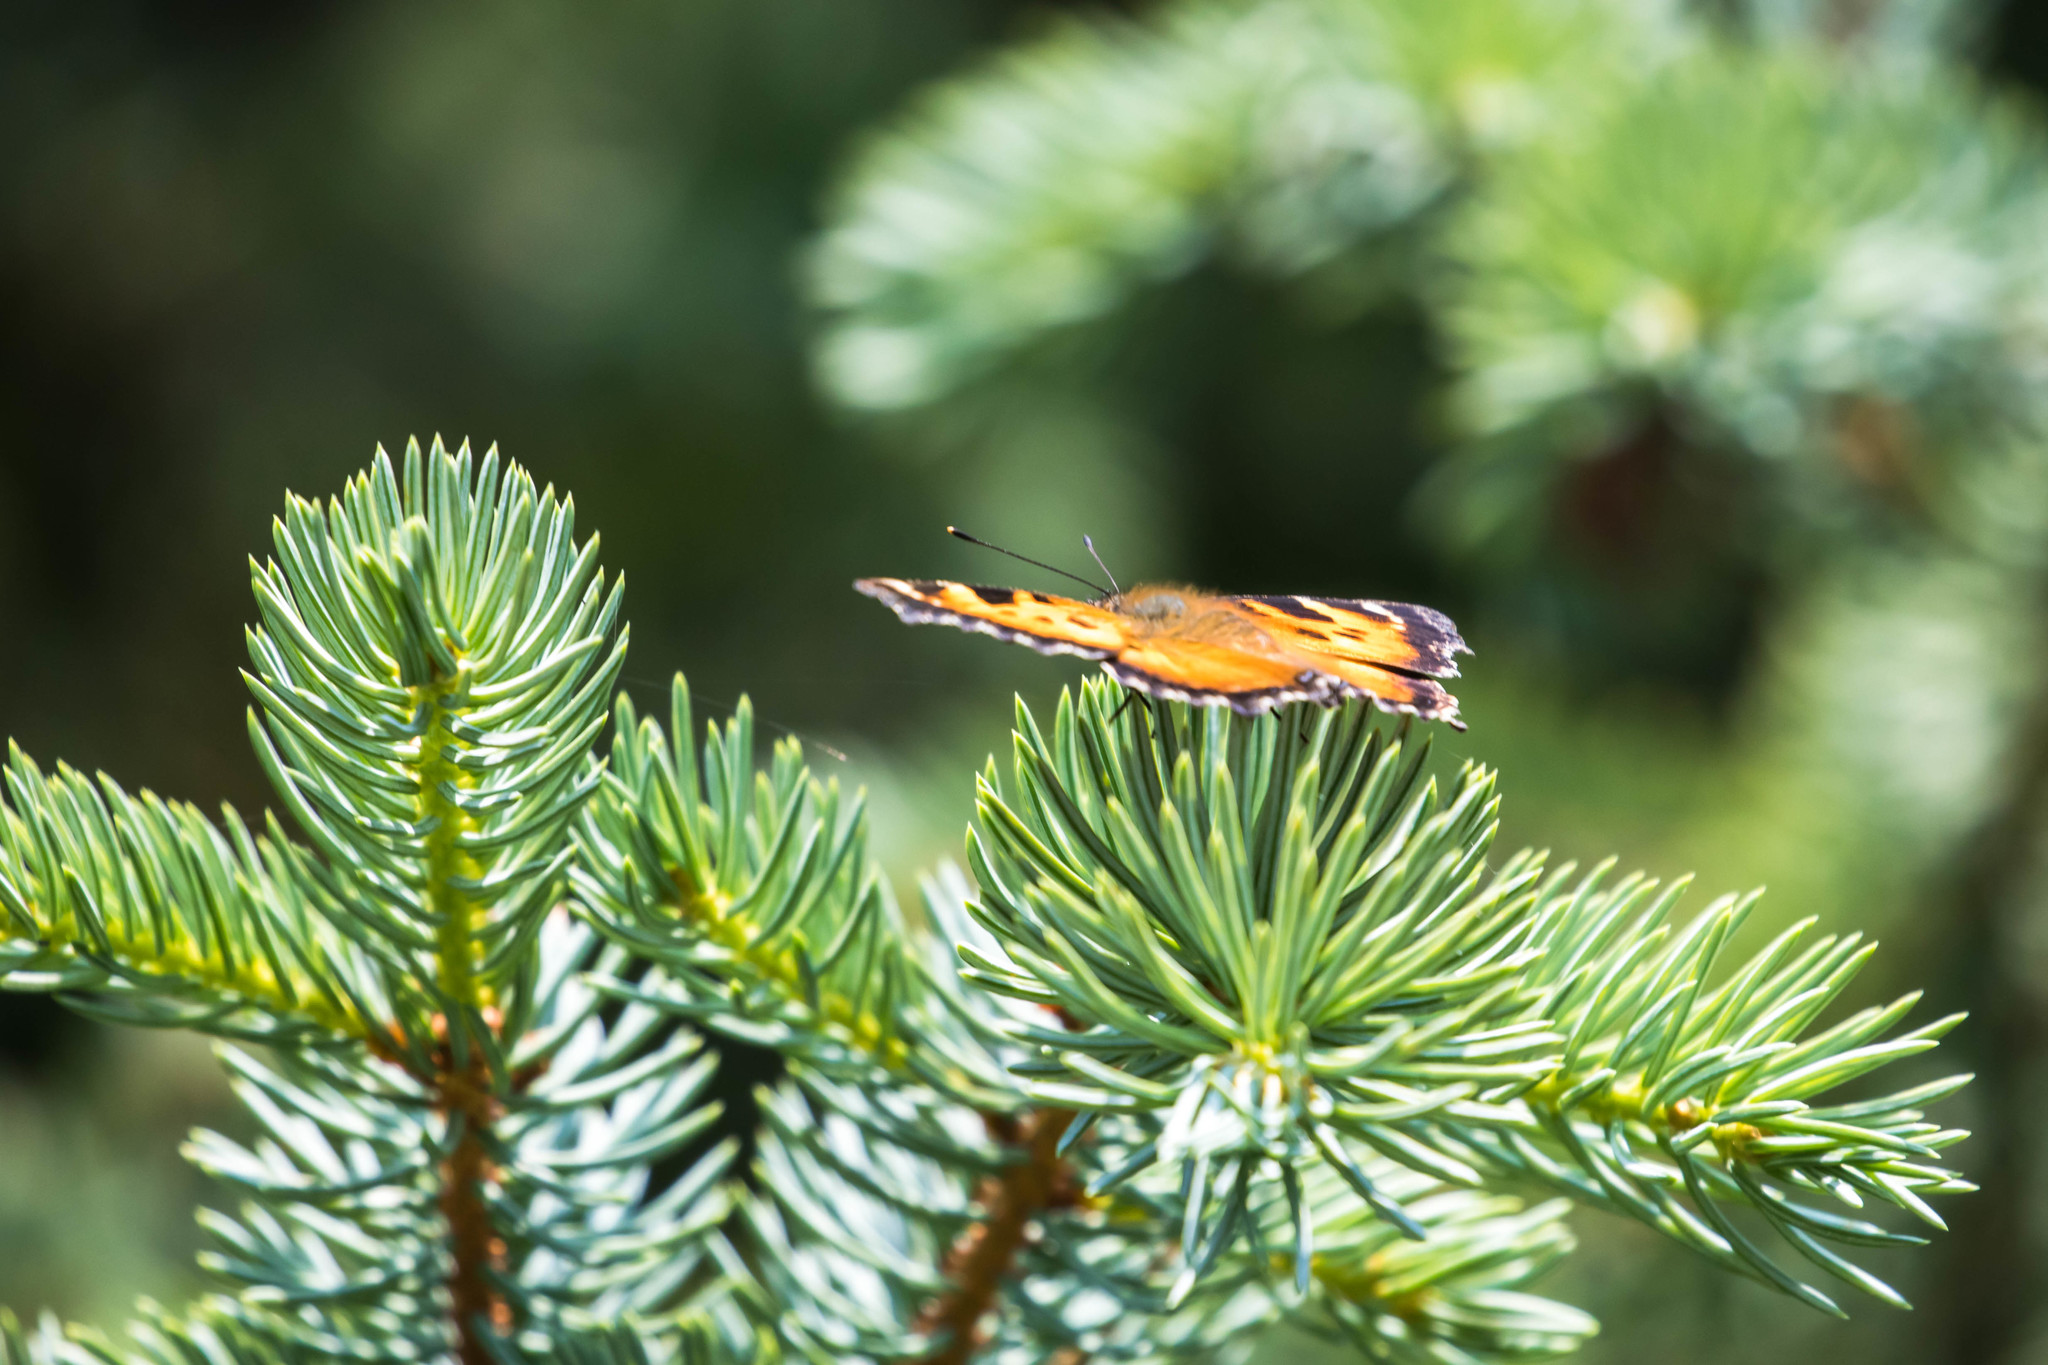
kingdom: Animalia
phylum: Arthropoda
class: Insecta
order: Lepidoptera
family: Nymphalidae
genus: Nymphalis
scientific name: Nymphalis californica
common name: California tortoiseshell
